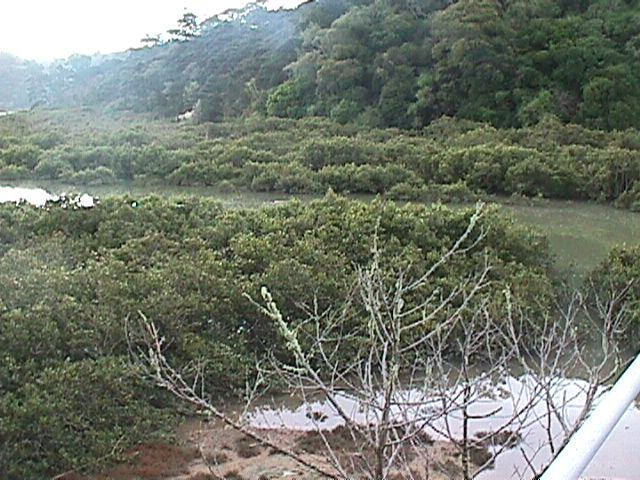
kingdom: Plantae
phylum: Tracheophyta
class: Magnoliopsida
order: Lamiales
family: Acanthaceae
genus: Avicennia
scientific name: Avicennia marina
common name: Gray mangrove
